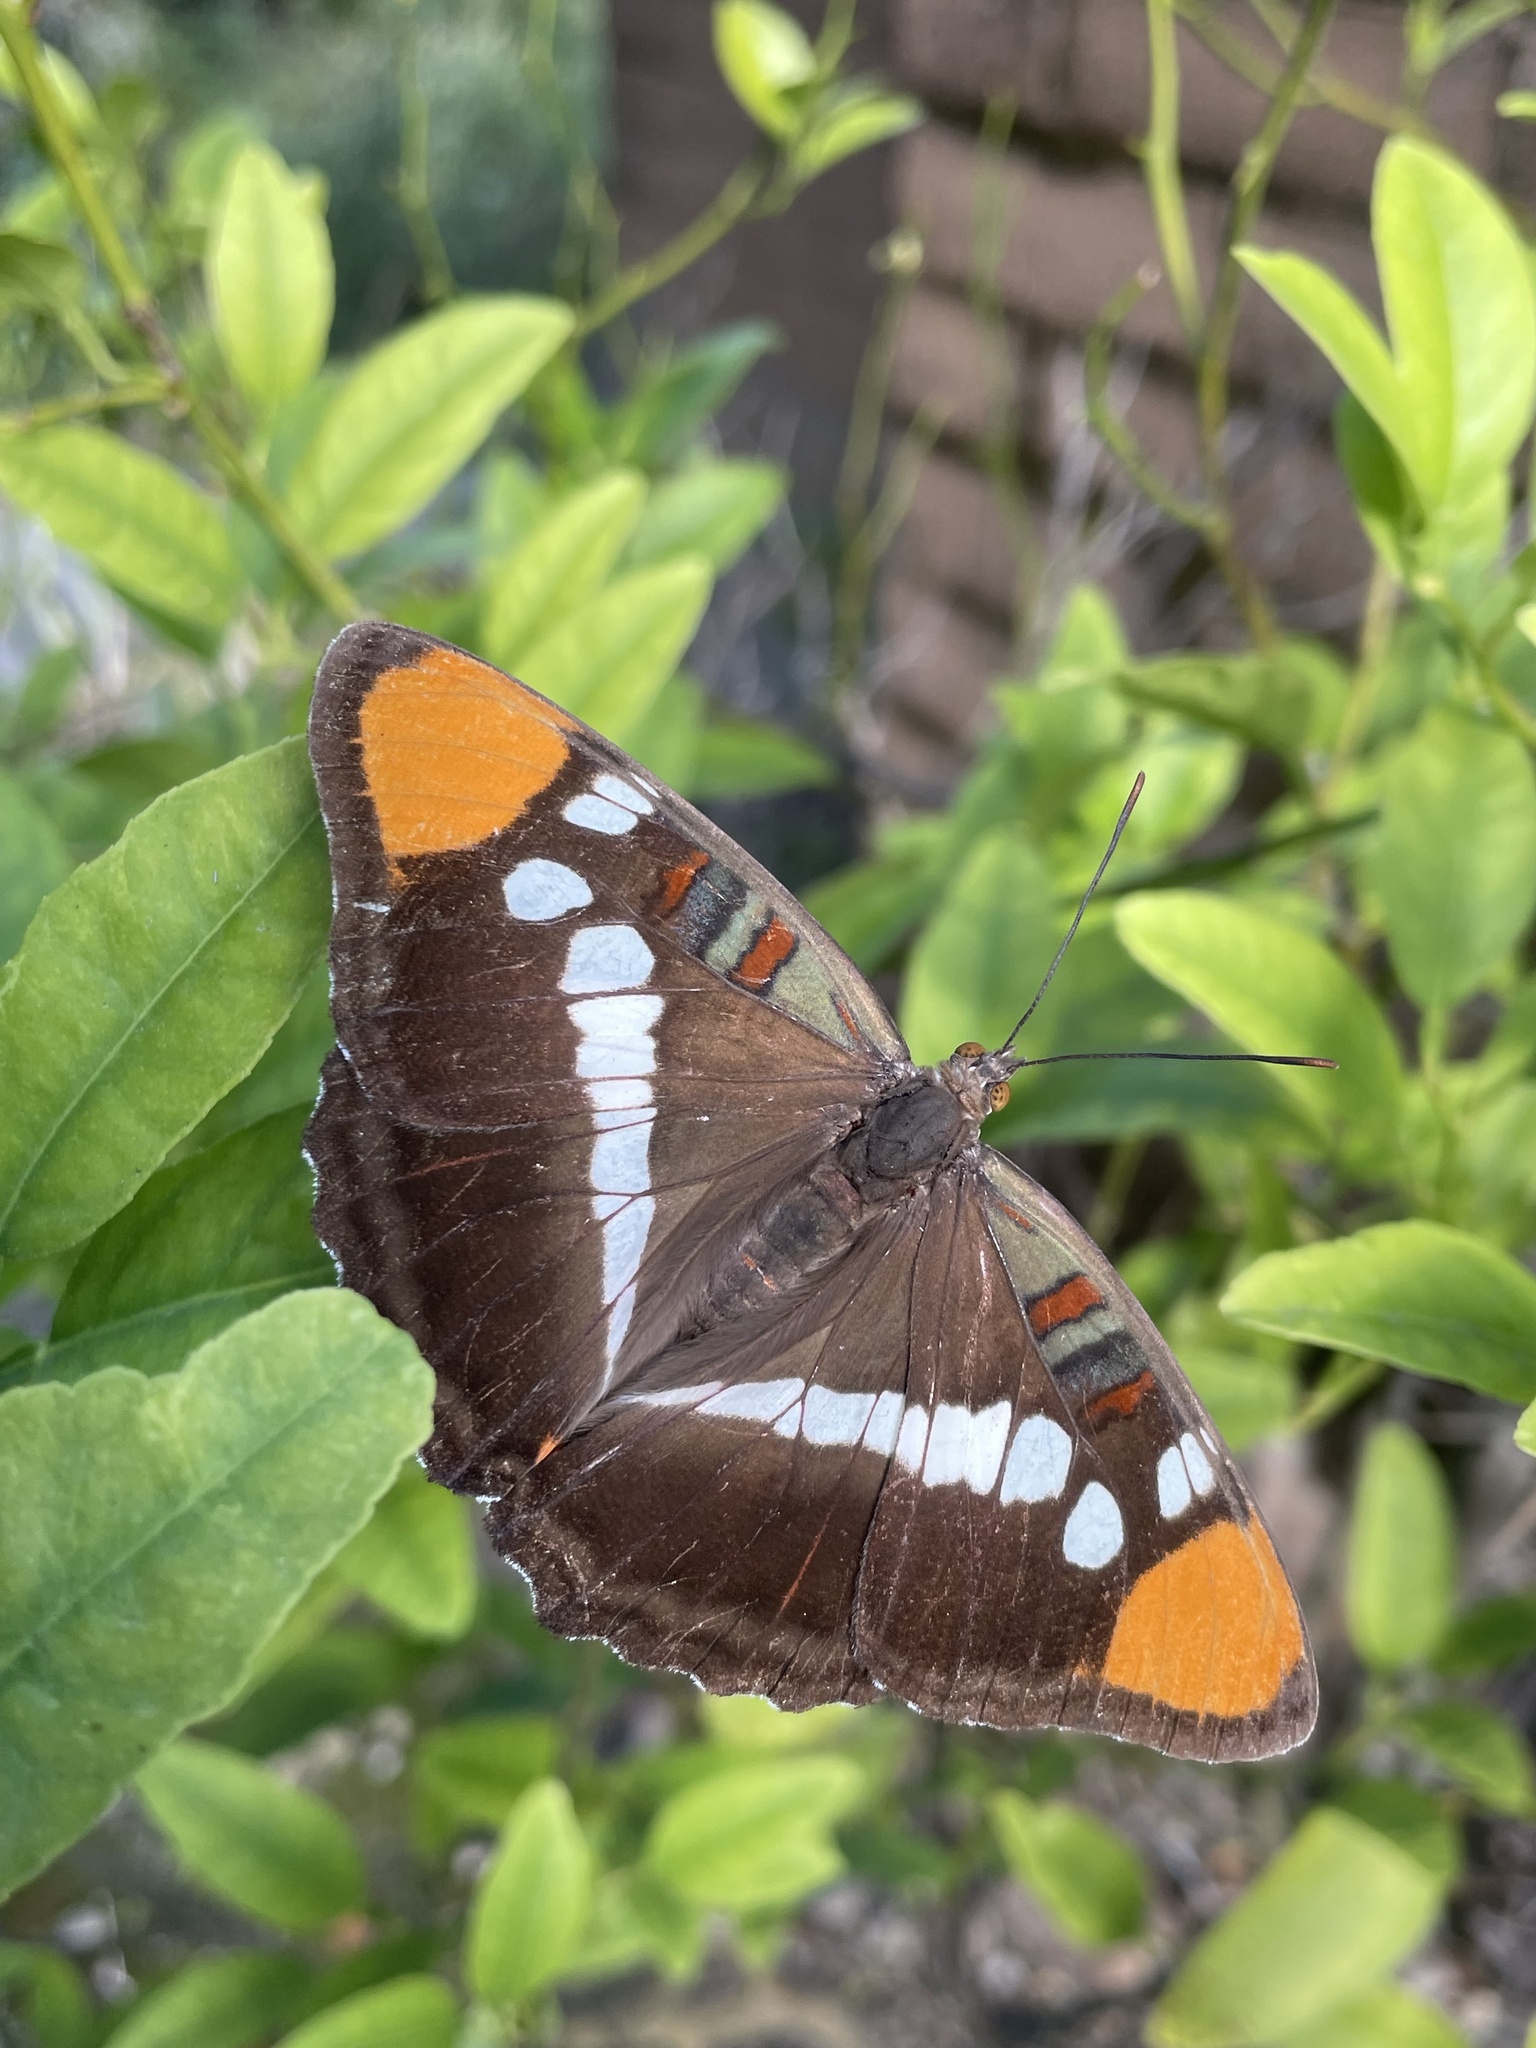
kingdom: Animalia
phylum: Arthropoda
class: Insecta
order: Lepidoptera
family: Nymphalidae
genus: Limenitis
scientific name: Limenitis bredowii
